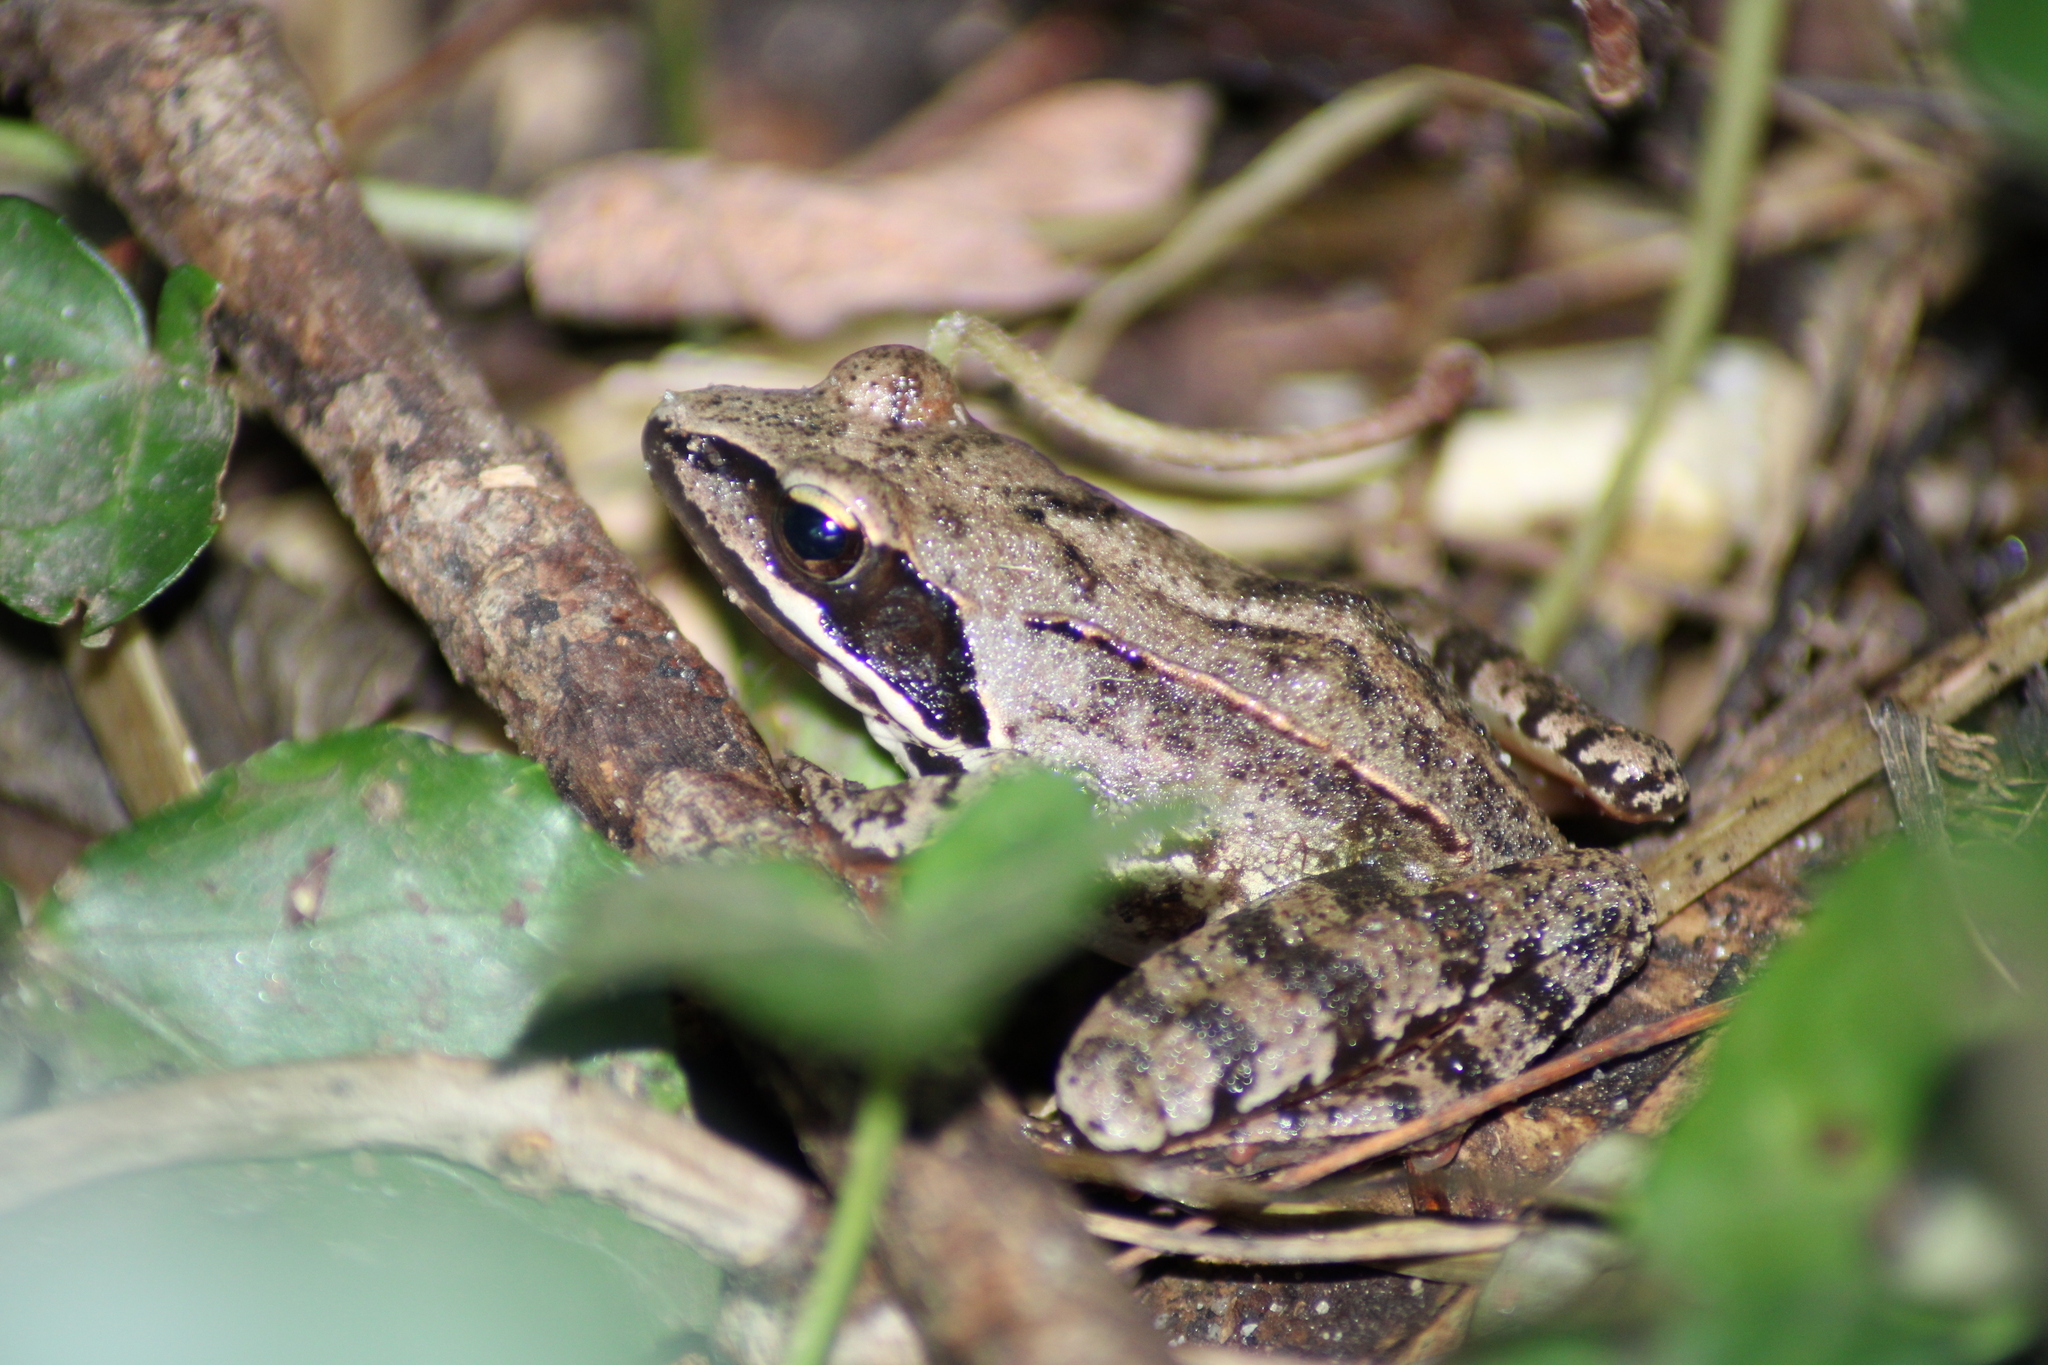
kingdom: Animalia
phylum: Chordata
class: Amphibia
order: Anura
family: Ranidae
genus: Rana
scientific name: Rana dalmatina
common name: Agile frog
